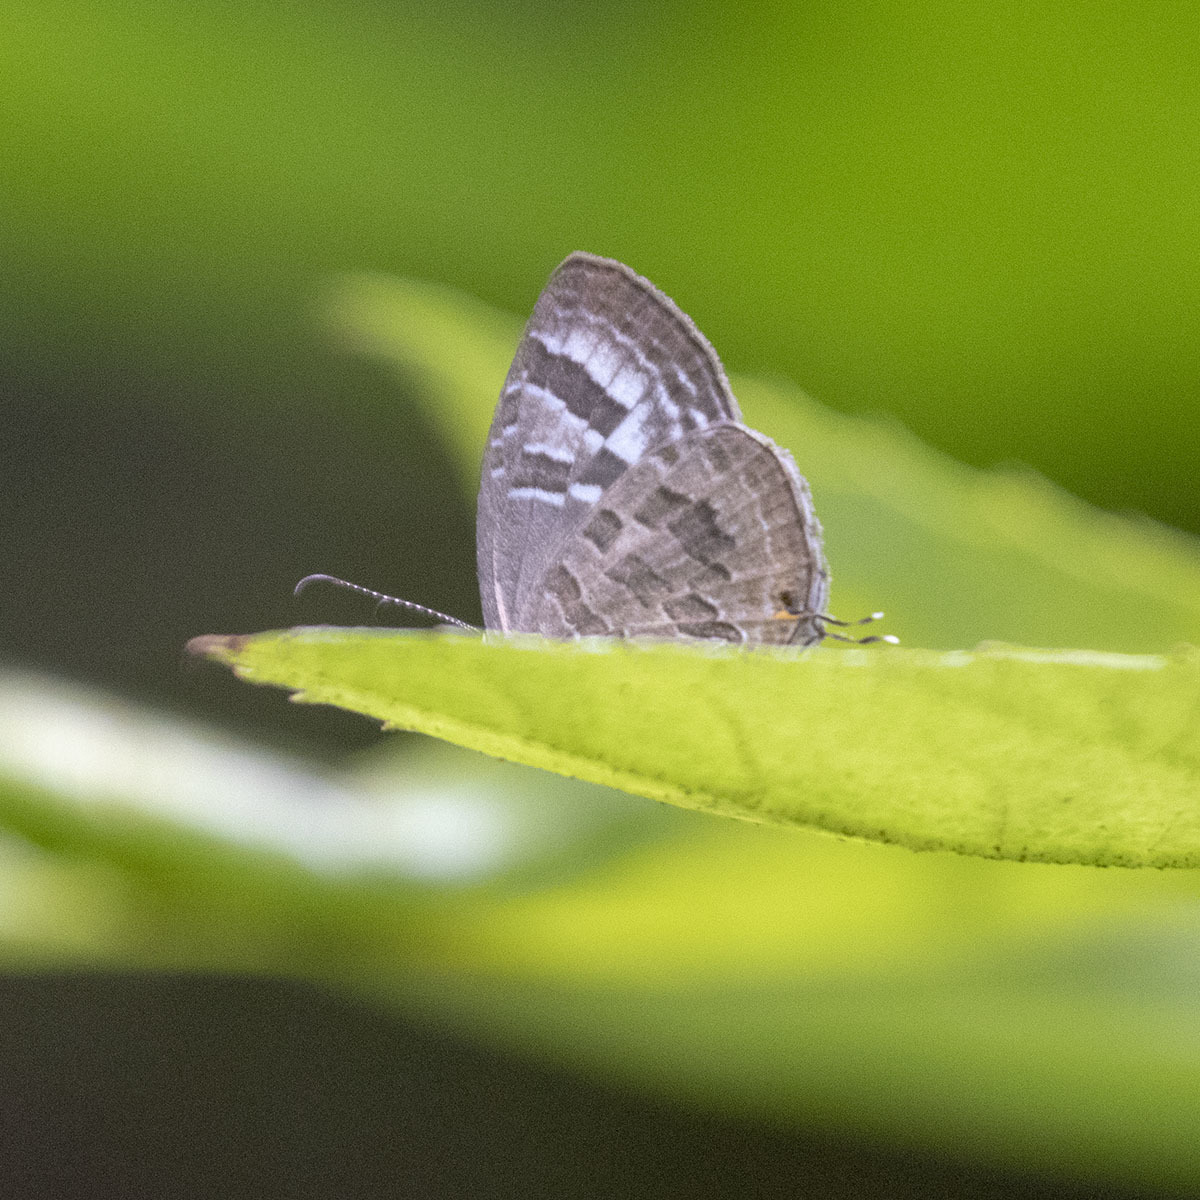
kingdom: Animalia
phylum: Arthropoda
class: Insecta
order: Lepidoptera
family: Lycaenidae
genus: Jamides
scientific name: Jamides celeno
